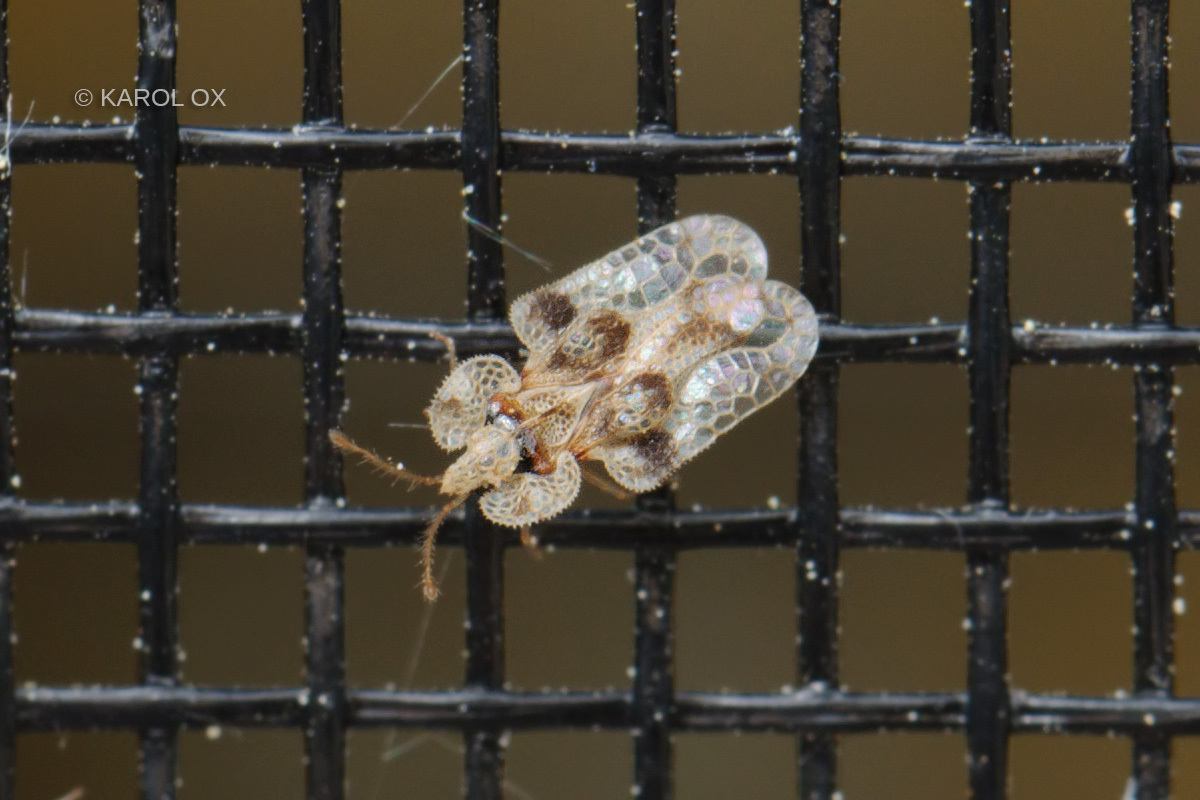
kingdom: Animalia
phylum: Arthropoda
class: Insecta
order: Hemiptera
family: Tingidae
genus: Corythucha
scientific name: Corythucha arcuata
